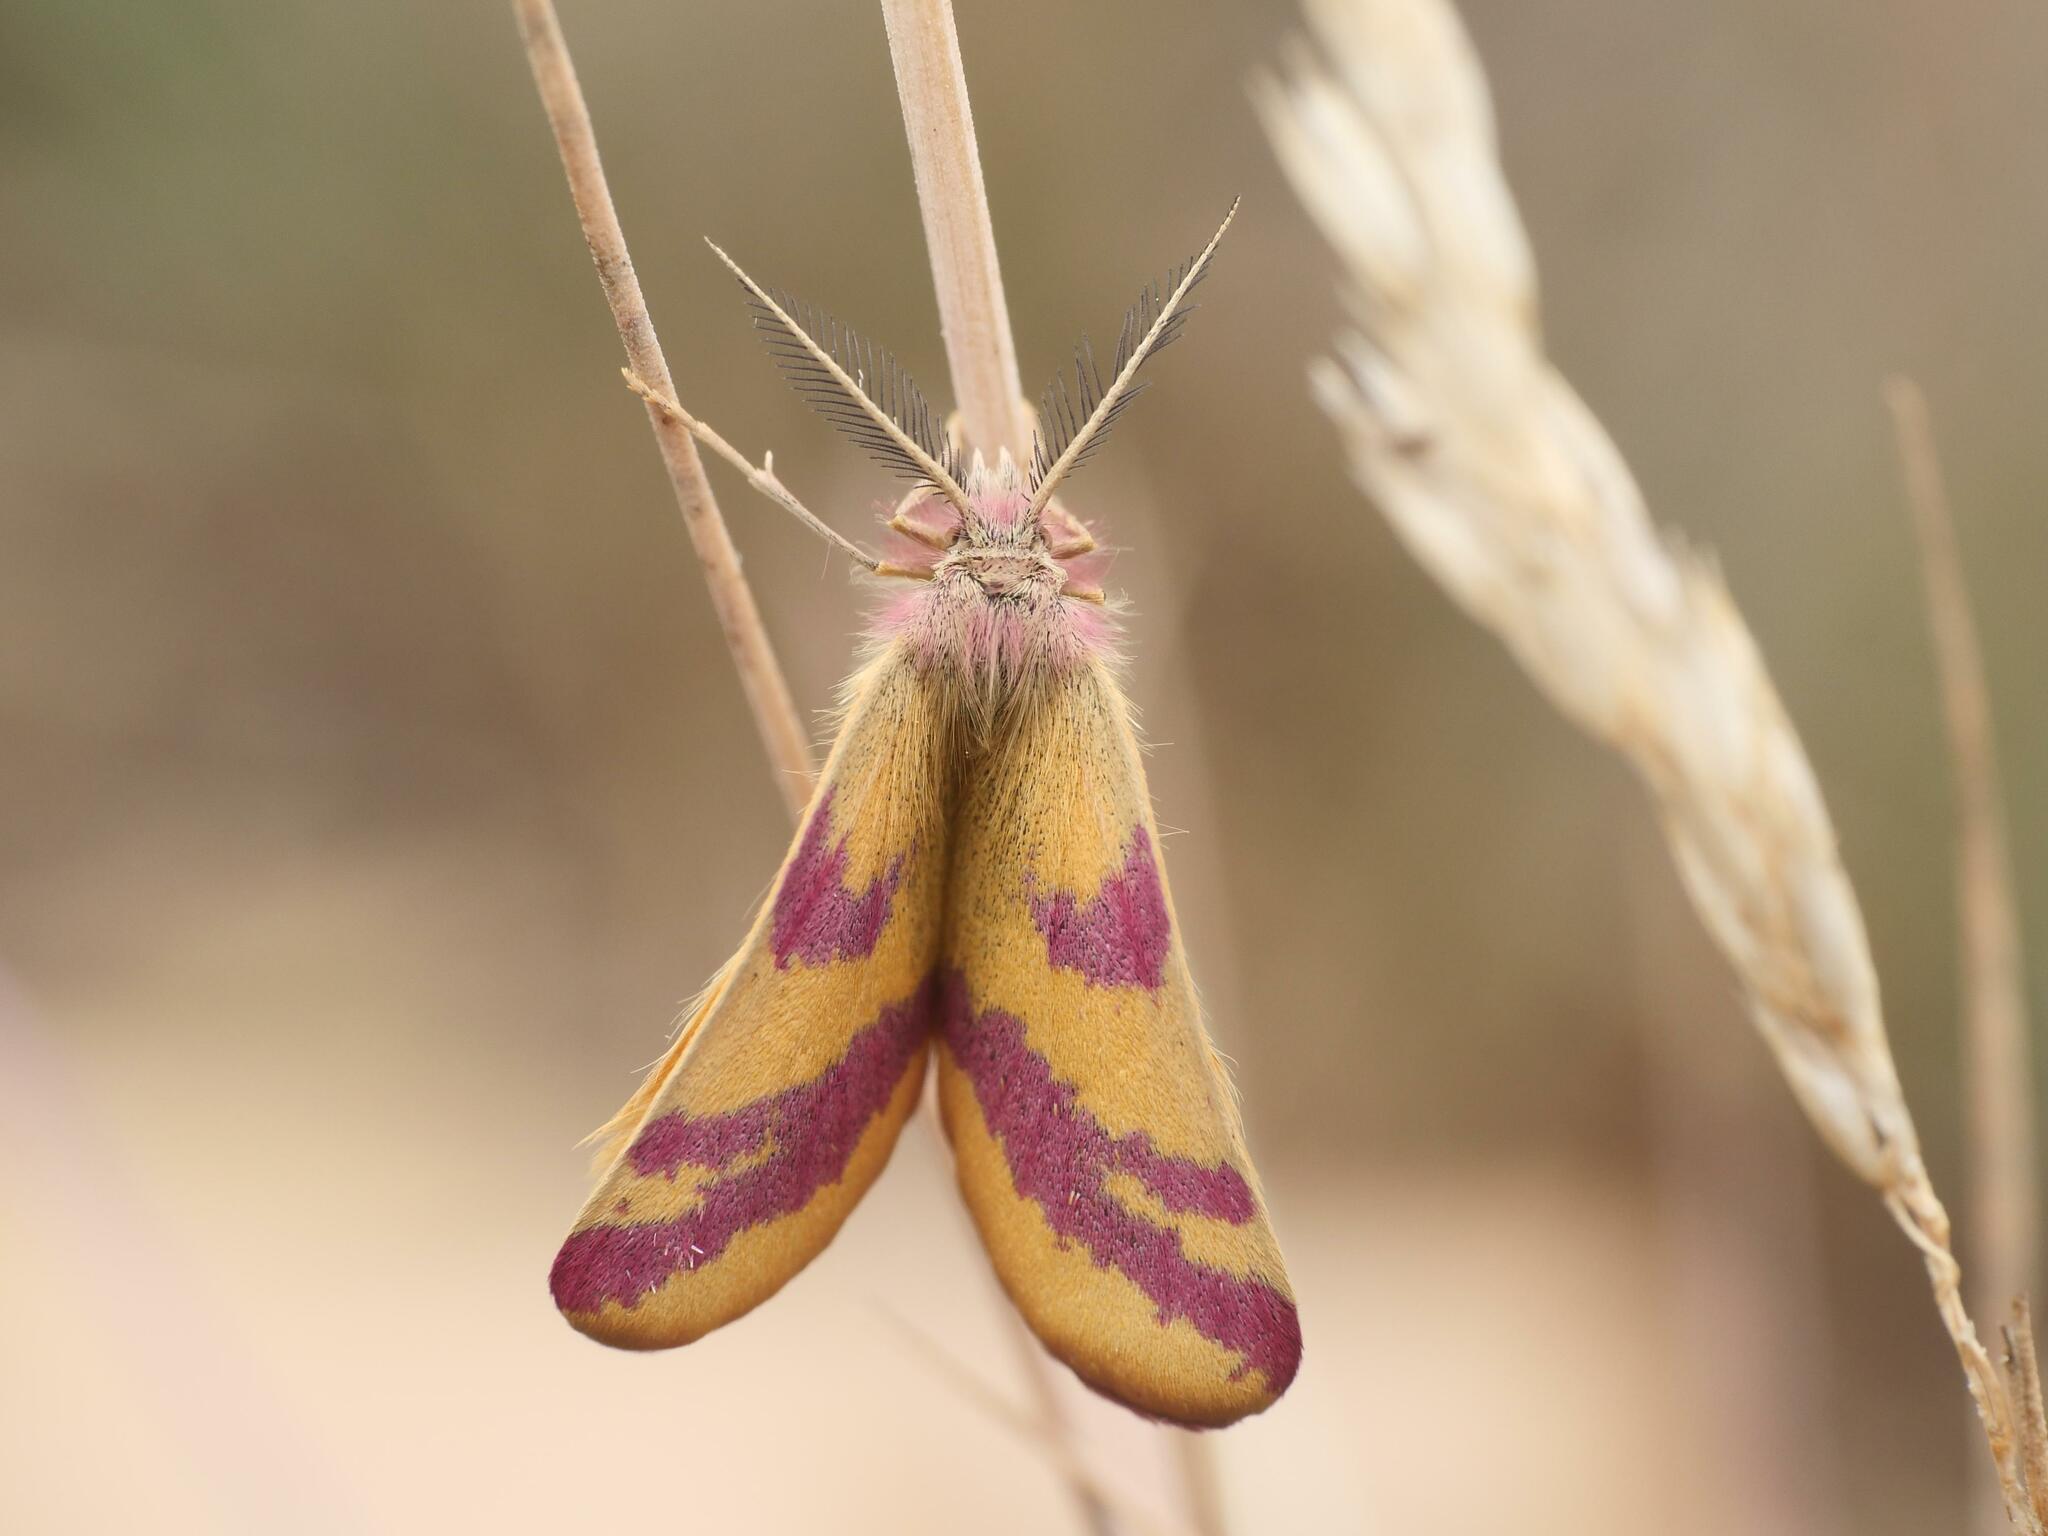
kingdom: Animalia
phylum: Arthropoda
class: Insecta
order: Lepidoptera
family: Geometridae
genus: Lythria
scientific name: Lythria cruentaria
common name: Purple-barred yellow
